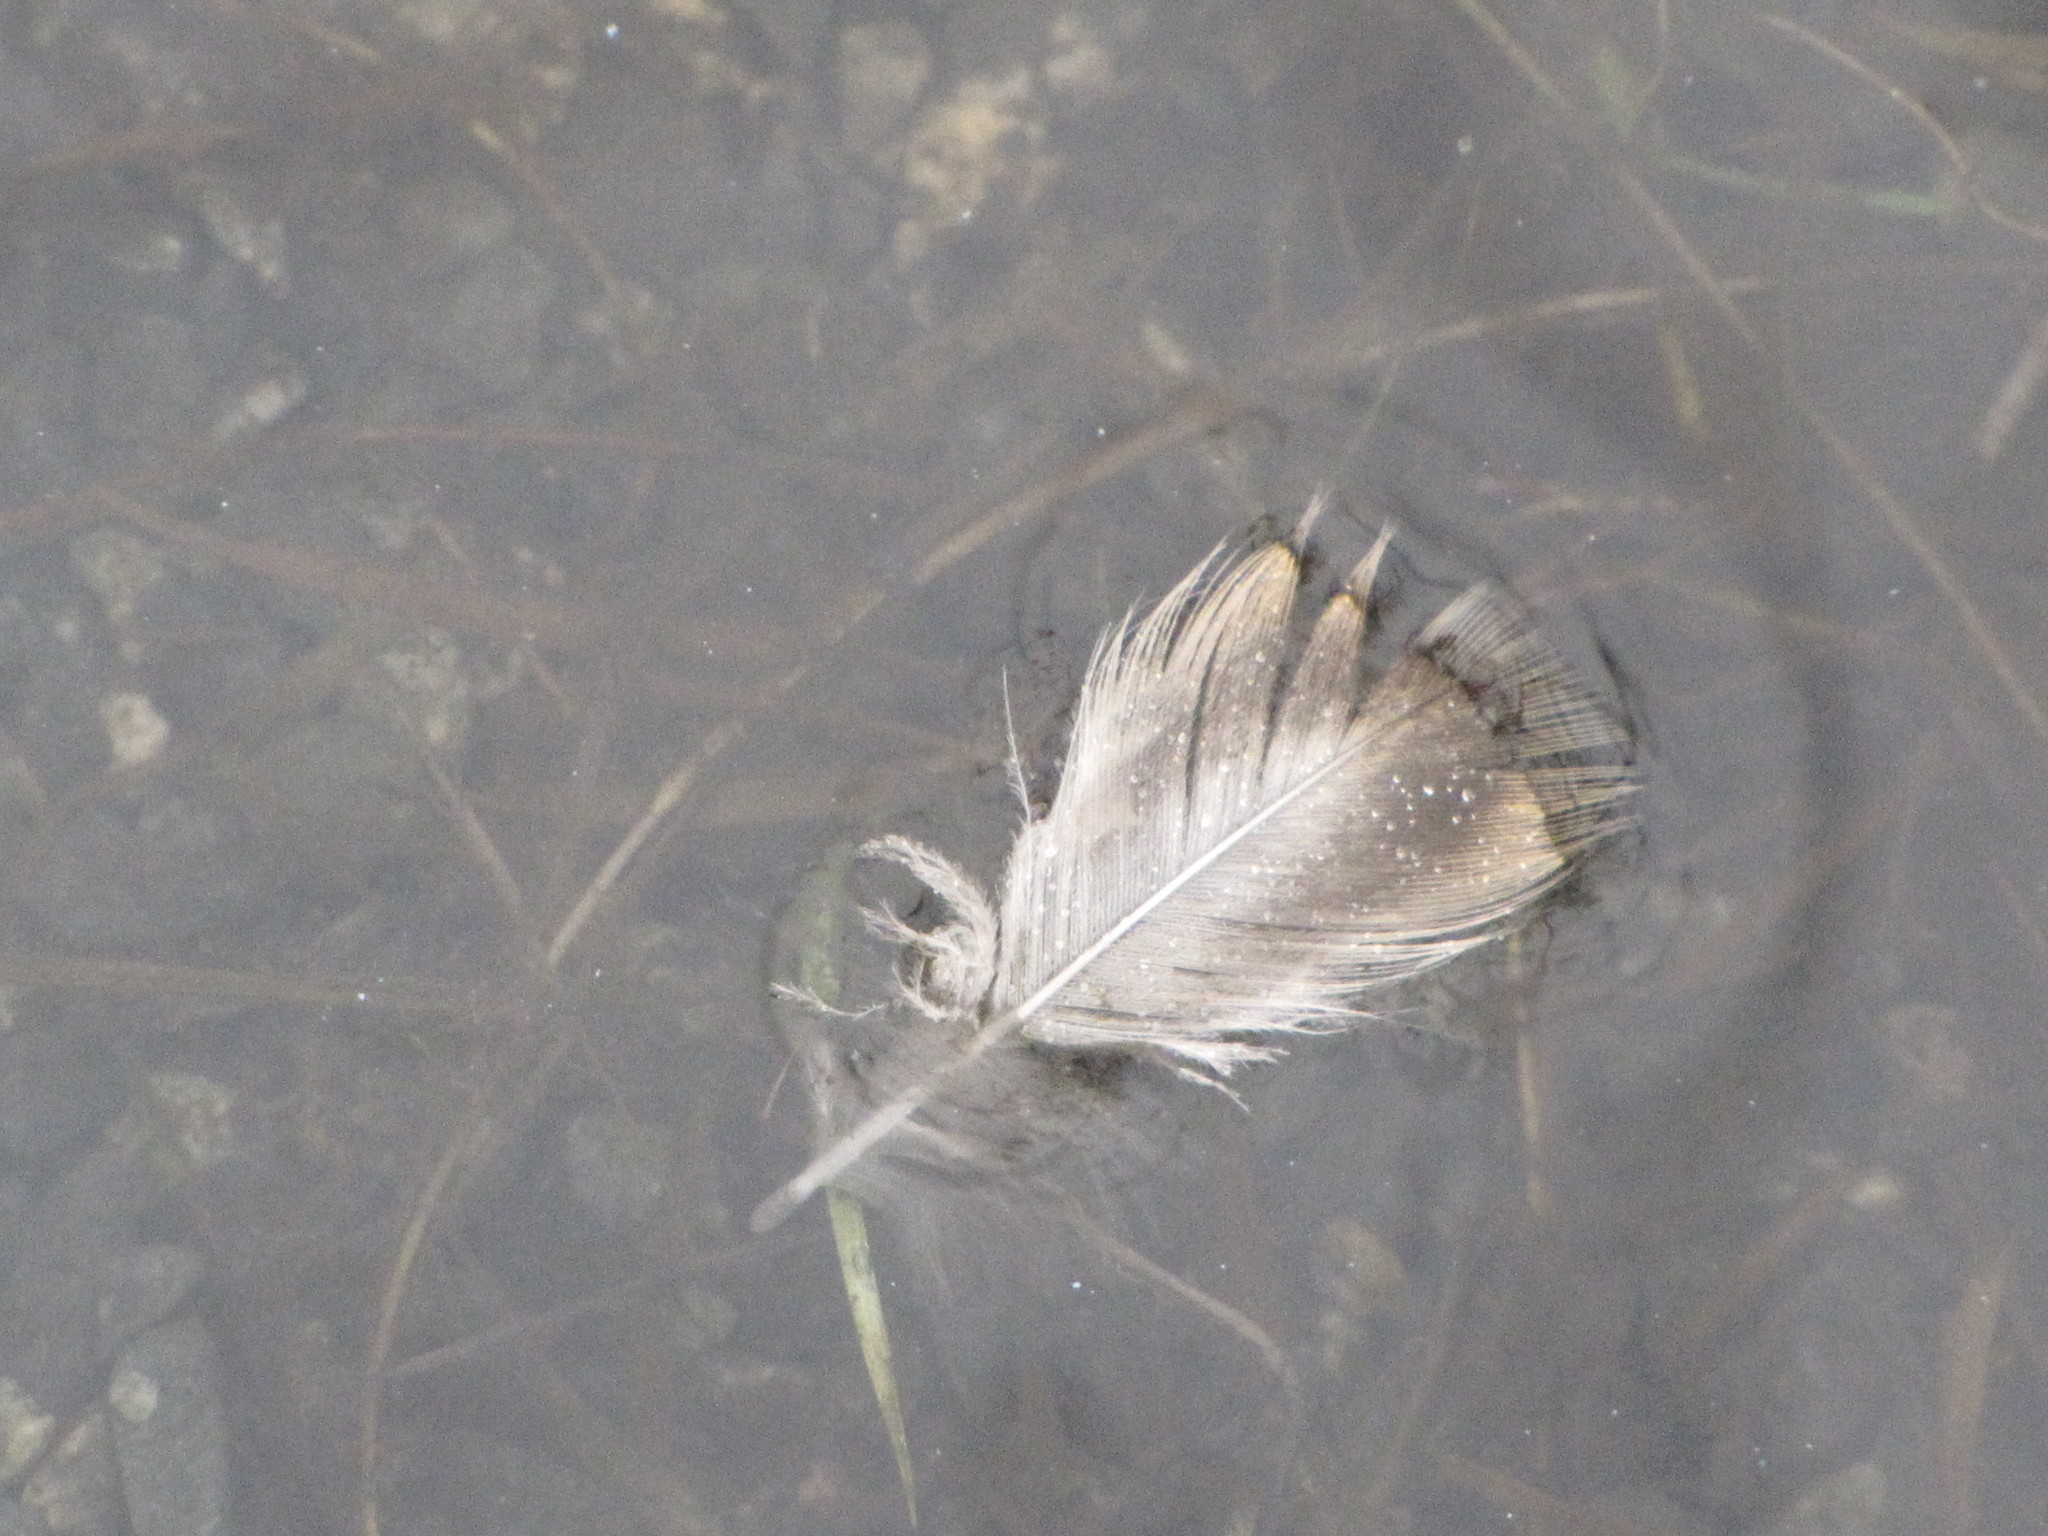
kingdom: Animalia
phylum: Chordata
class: Aves
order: Anseriformes
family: Anatidae
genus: Anas
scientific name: Anas platyrhynchos
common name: Mallard
